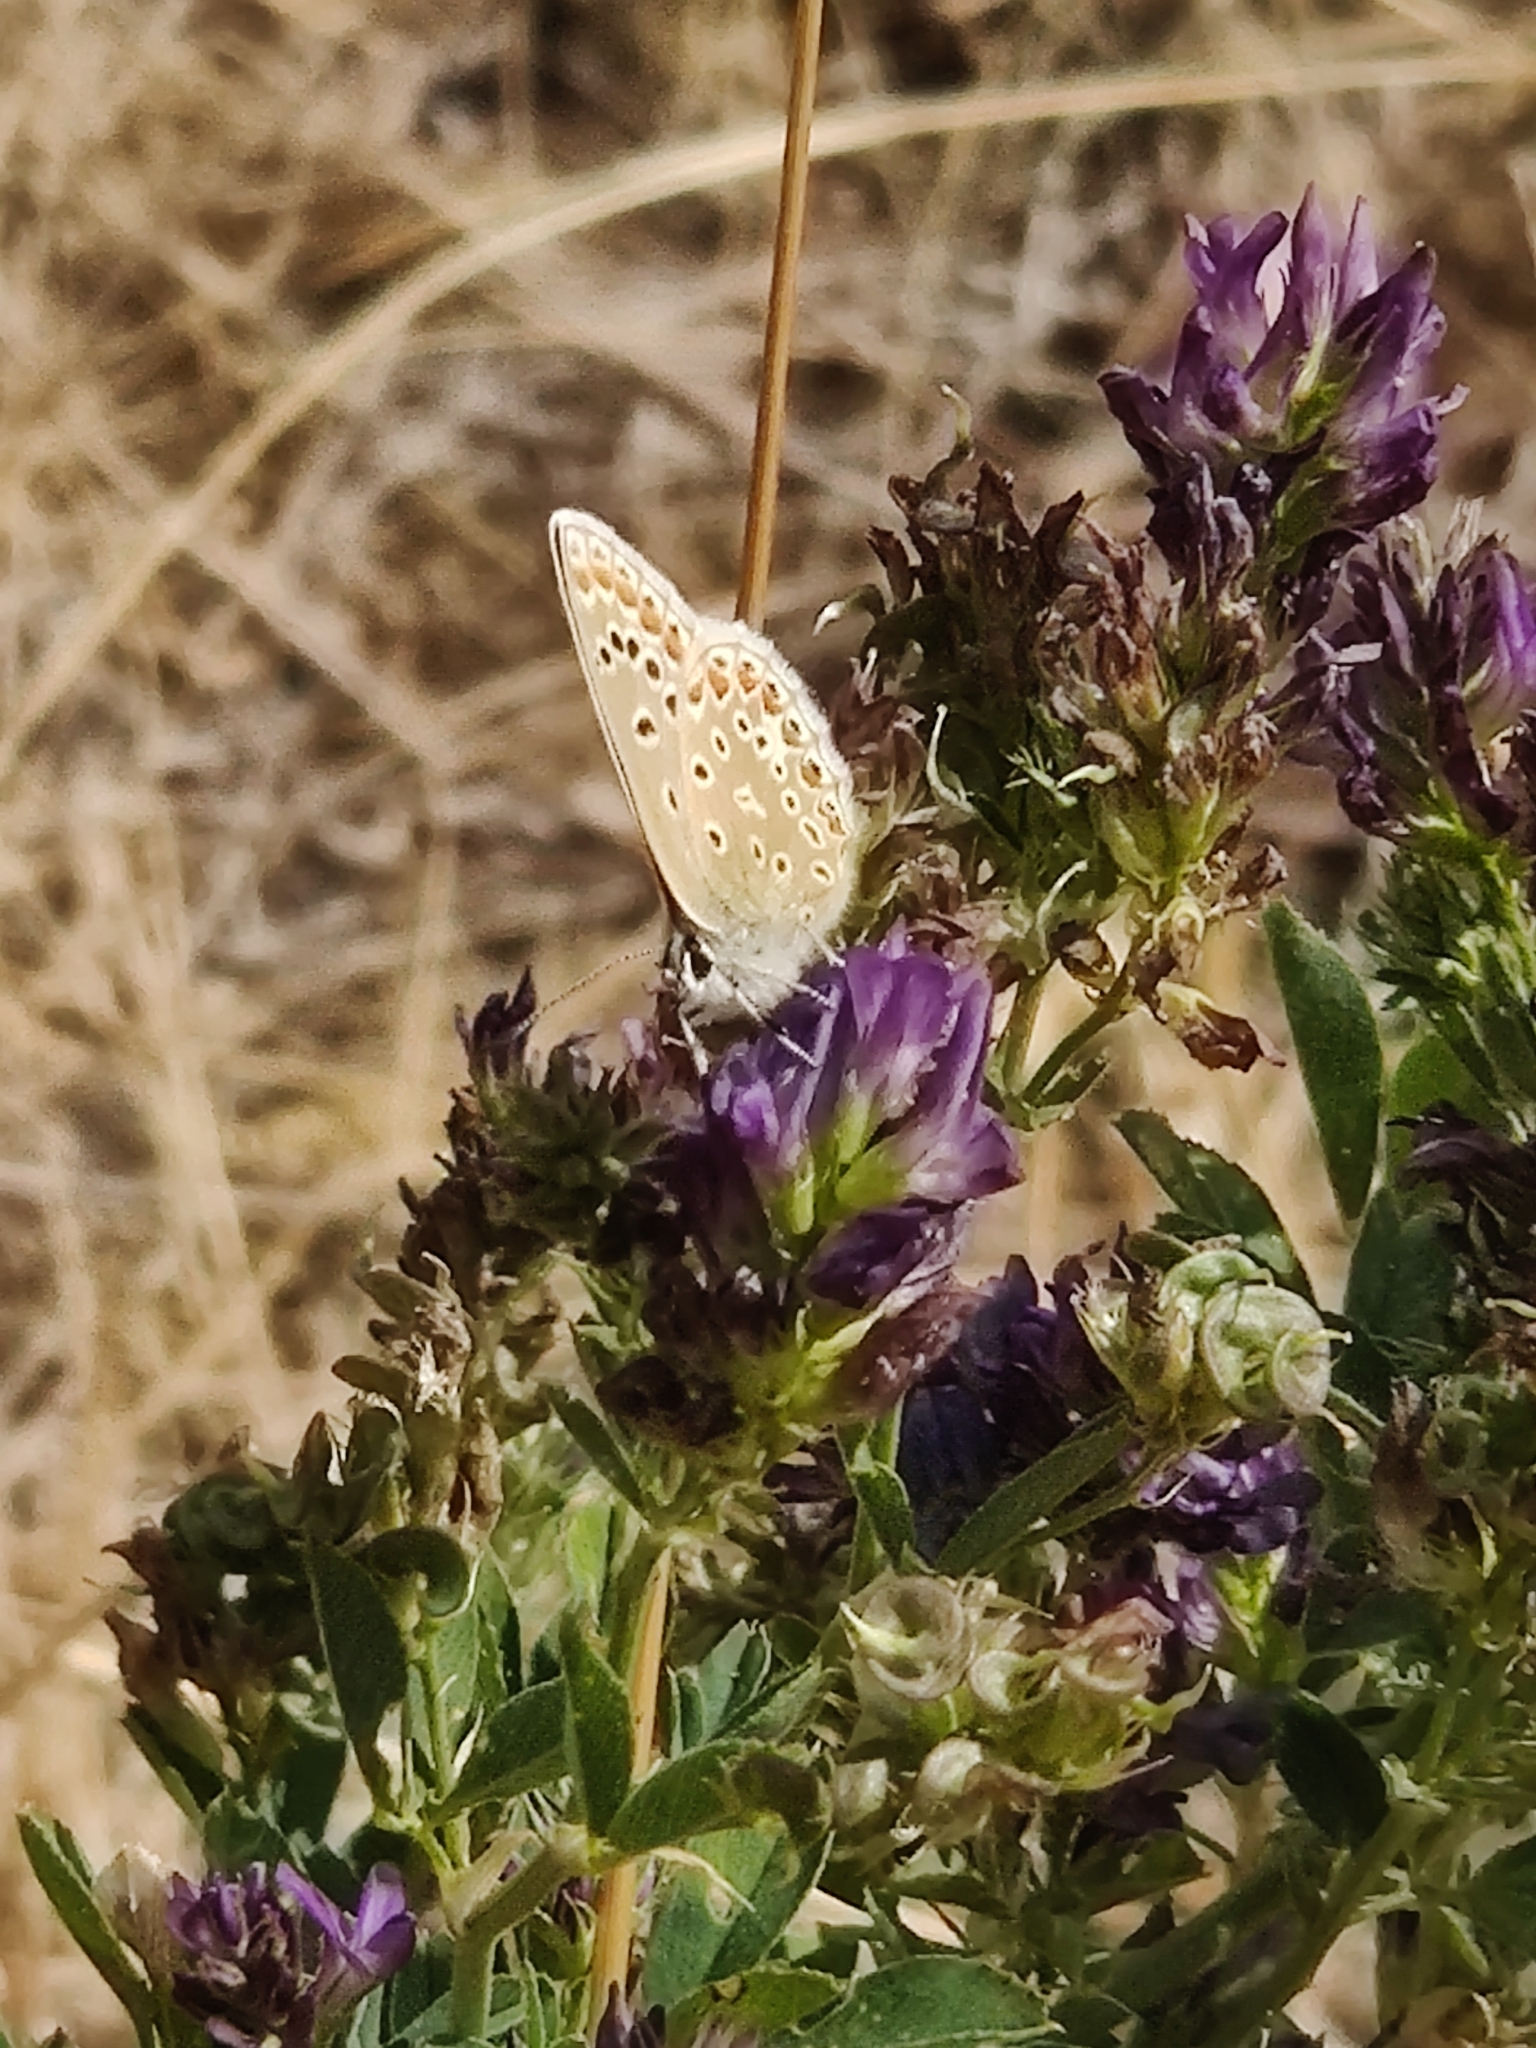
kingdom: Animalia
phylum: Arthropoda
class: Insecta
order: Lepidoptera
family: Lycaenidae
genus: Polyommatus
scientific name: Polyommatus icarus
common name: Common blue
